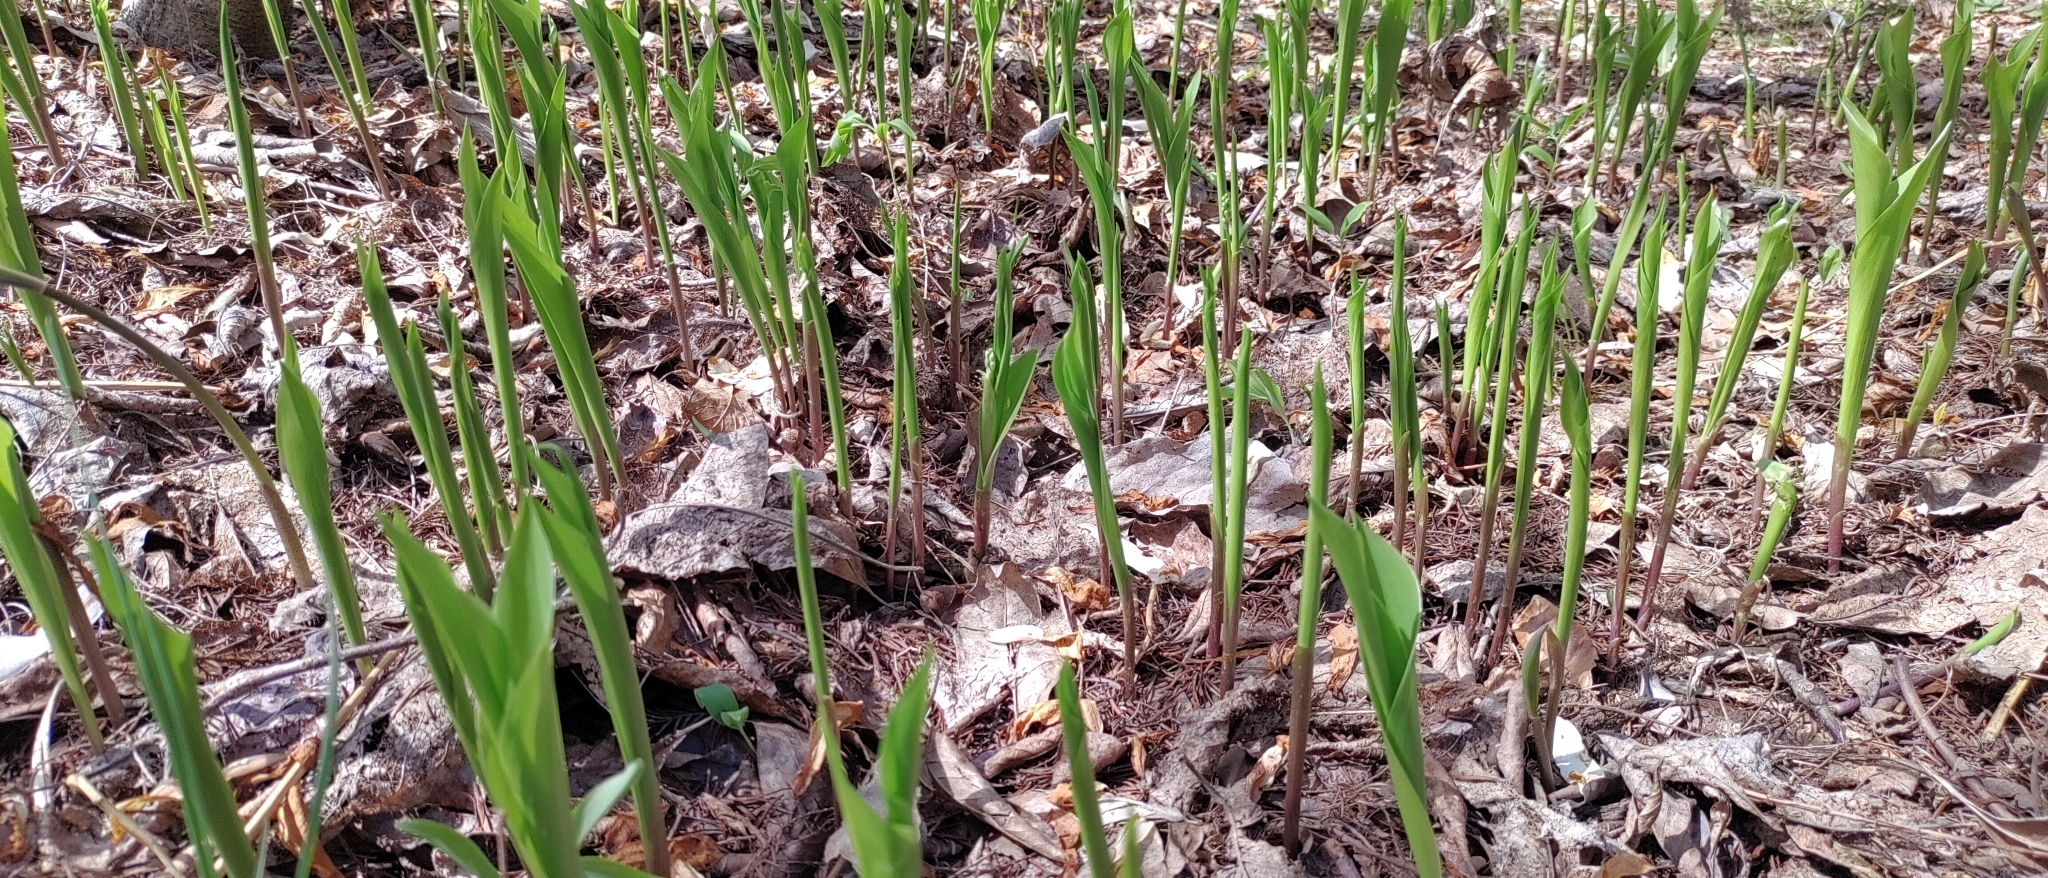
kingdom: Plantae
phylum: Tracheophyta
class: Liliopsida
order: Asparagales
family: Asparagaceae
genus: Convallaria
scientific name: Convallaria majalis
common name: Lily-of-the-valley
